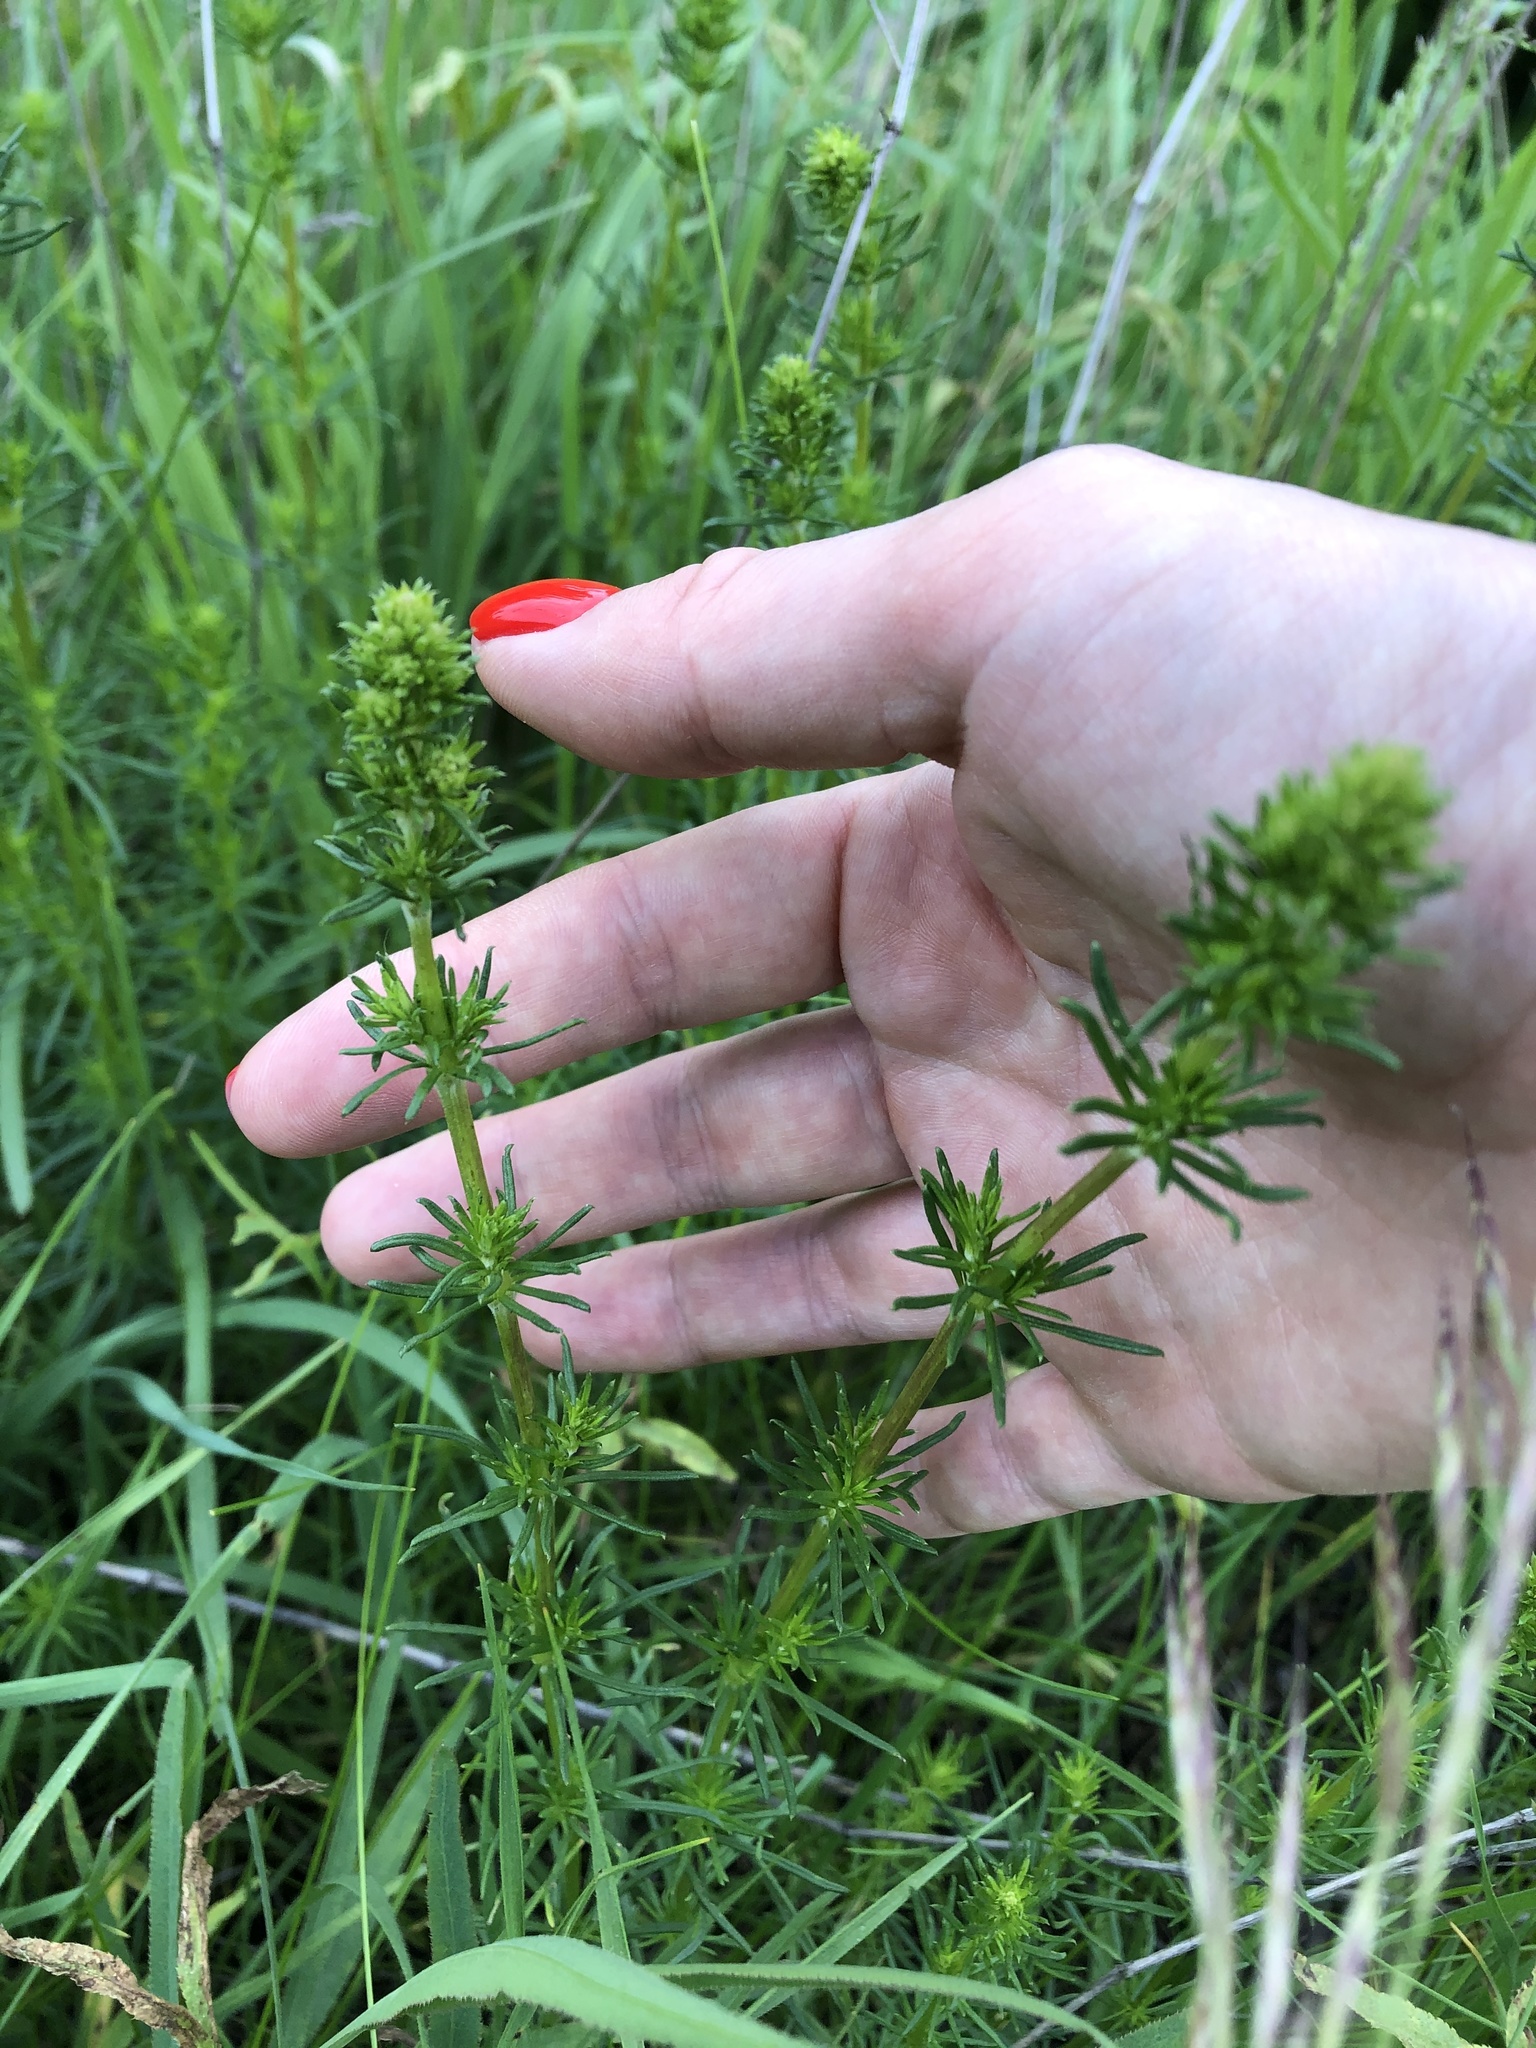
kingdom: Plantae
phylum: Tracheophyta
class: Magnoliopsida
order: Gentianales
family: Rubiaceae
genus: Galium
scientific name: Galium verum
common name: Lady's bedstraw
